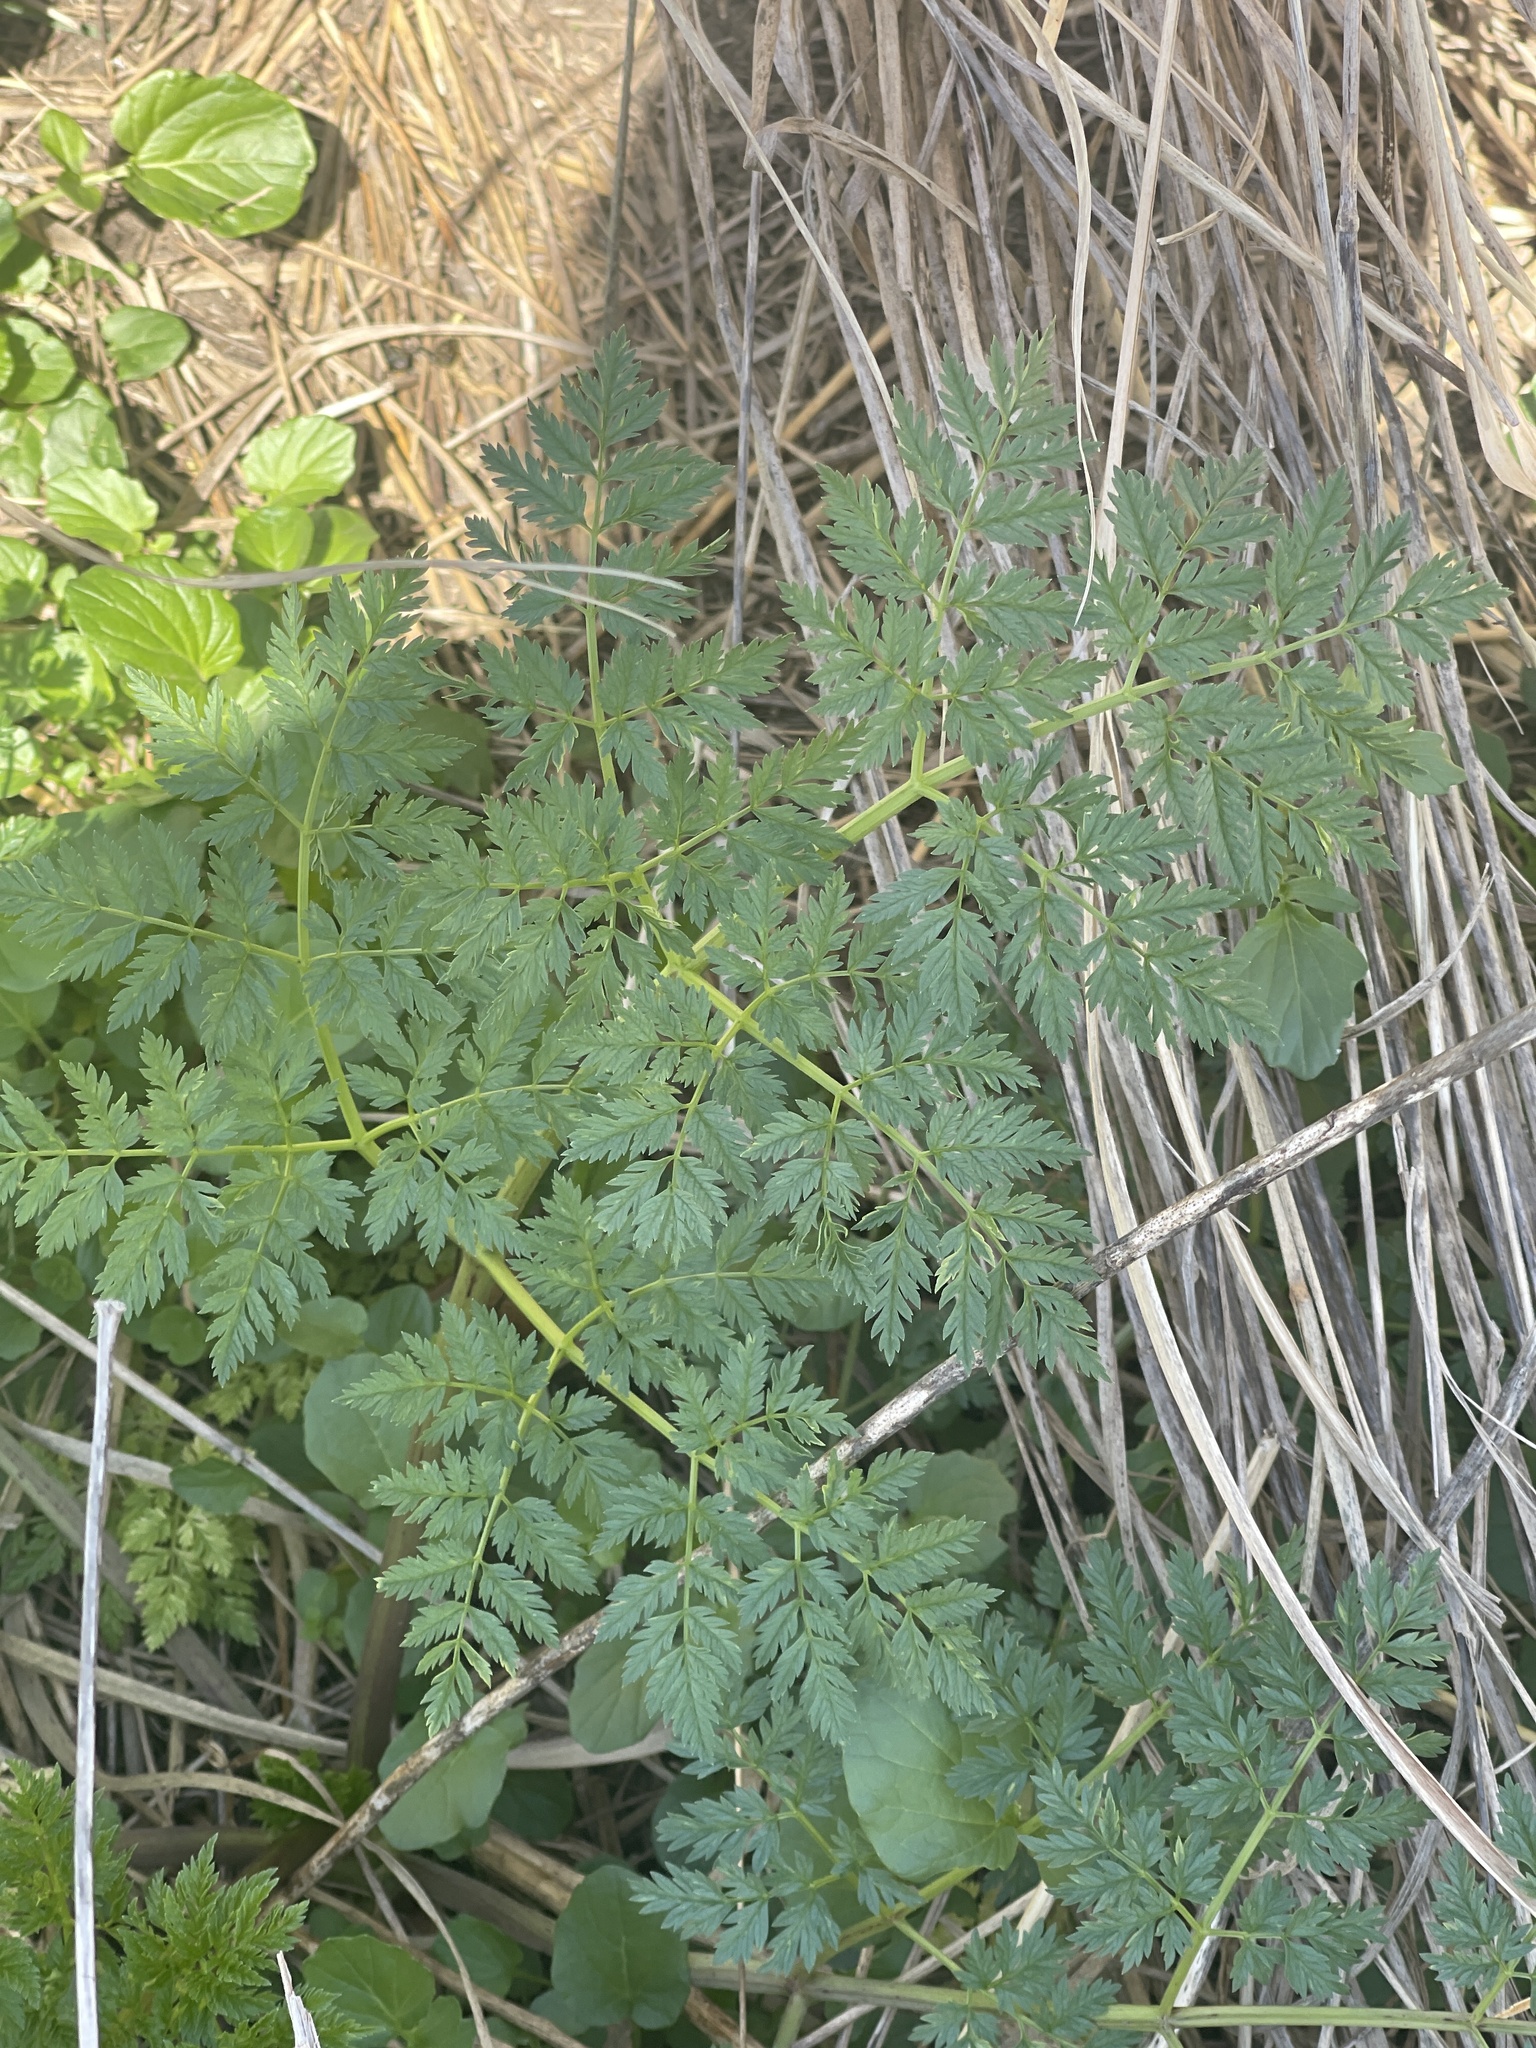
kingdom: Plantae
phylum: Tracheophyta
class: Magnoliopsida
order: Apiales
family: Apiaceae
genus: Anthriscus
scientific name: Anthriscus sylvestris
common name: Cow parsley
